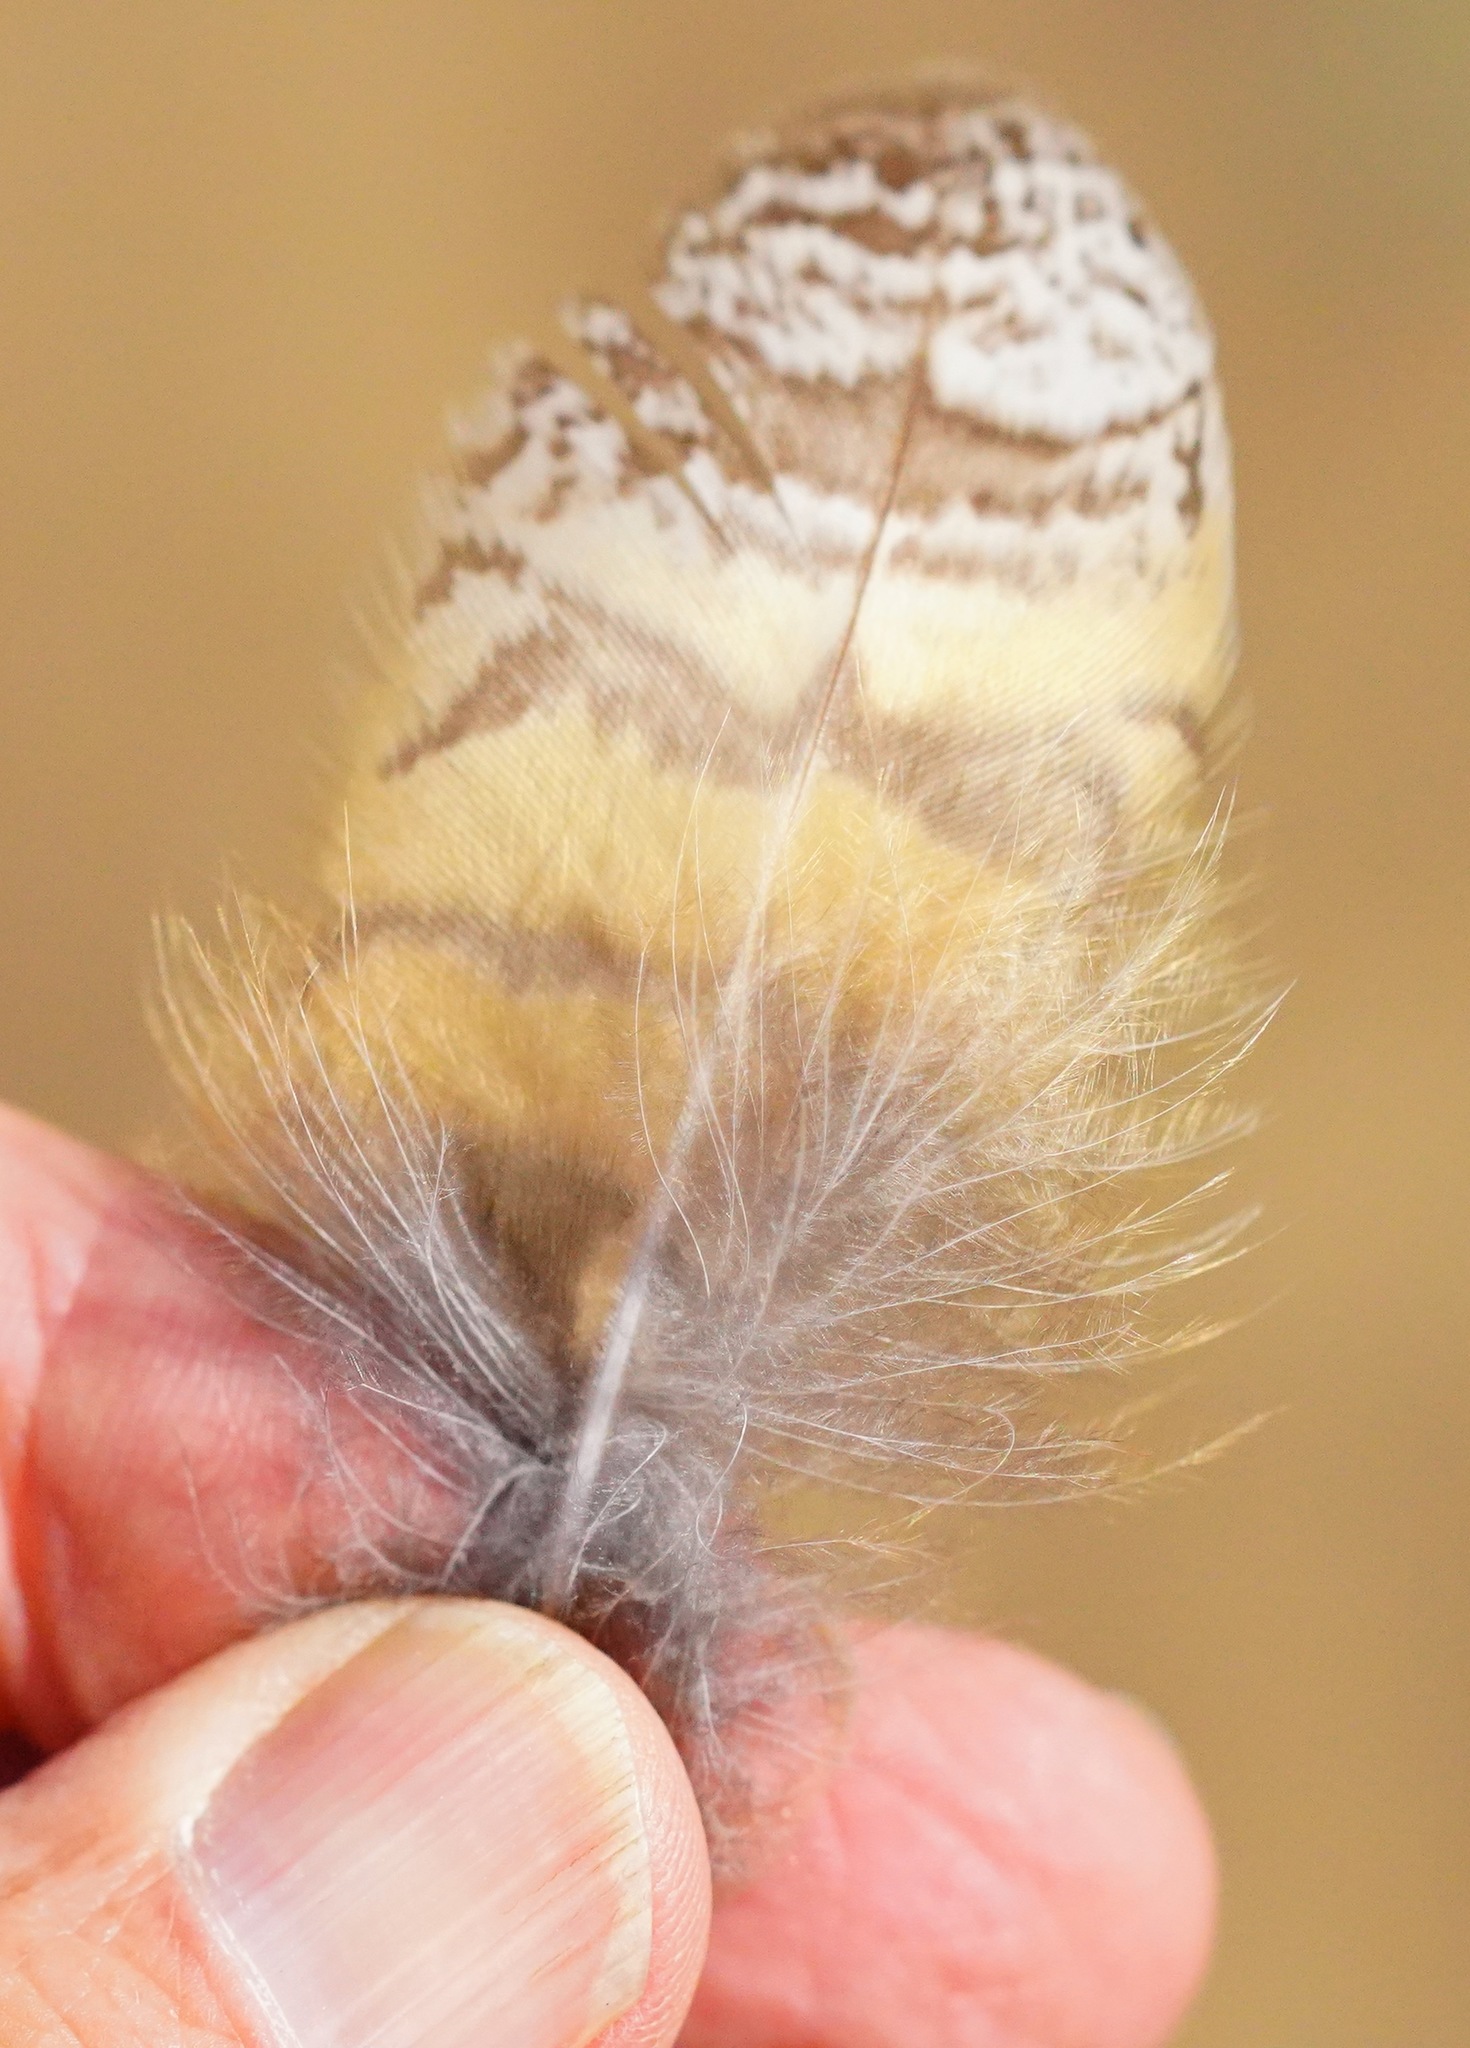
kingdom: Animalia
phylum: Chordata
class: Aves
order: Strigiformes
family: Strigidae
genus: Bubo
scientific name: Bubo virginianus
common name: Great horned owl
